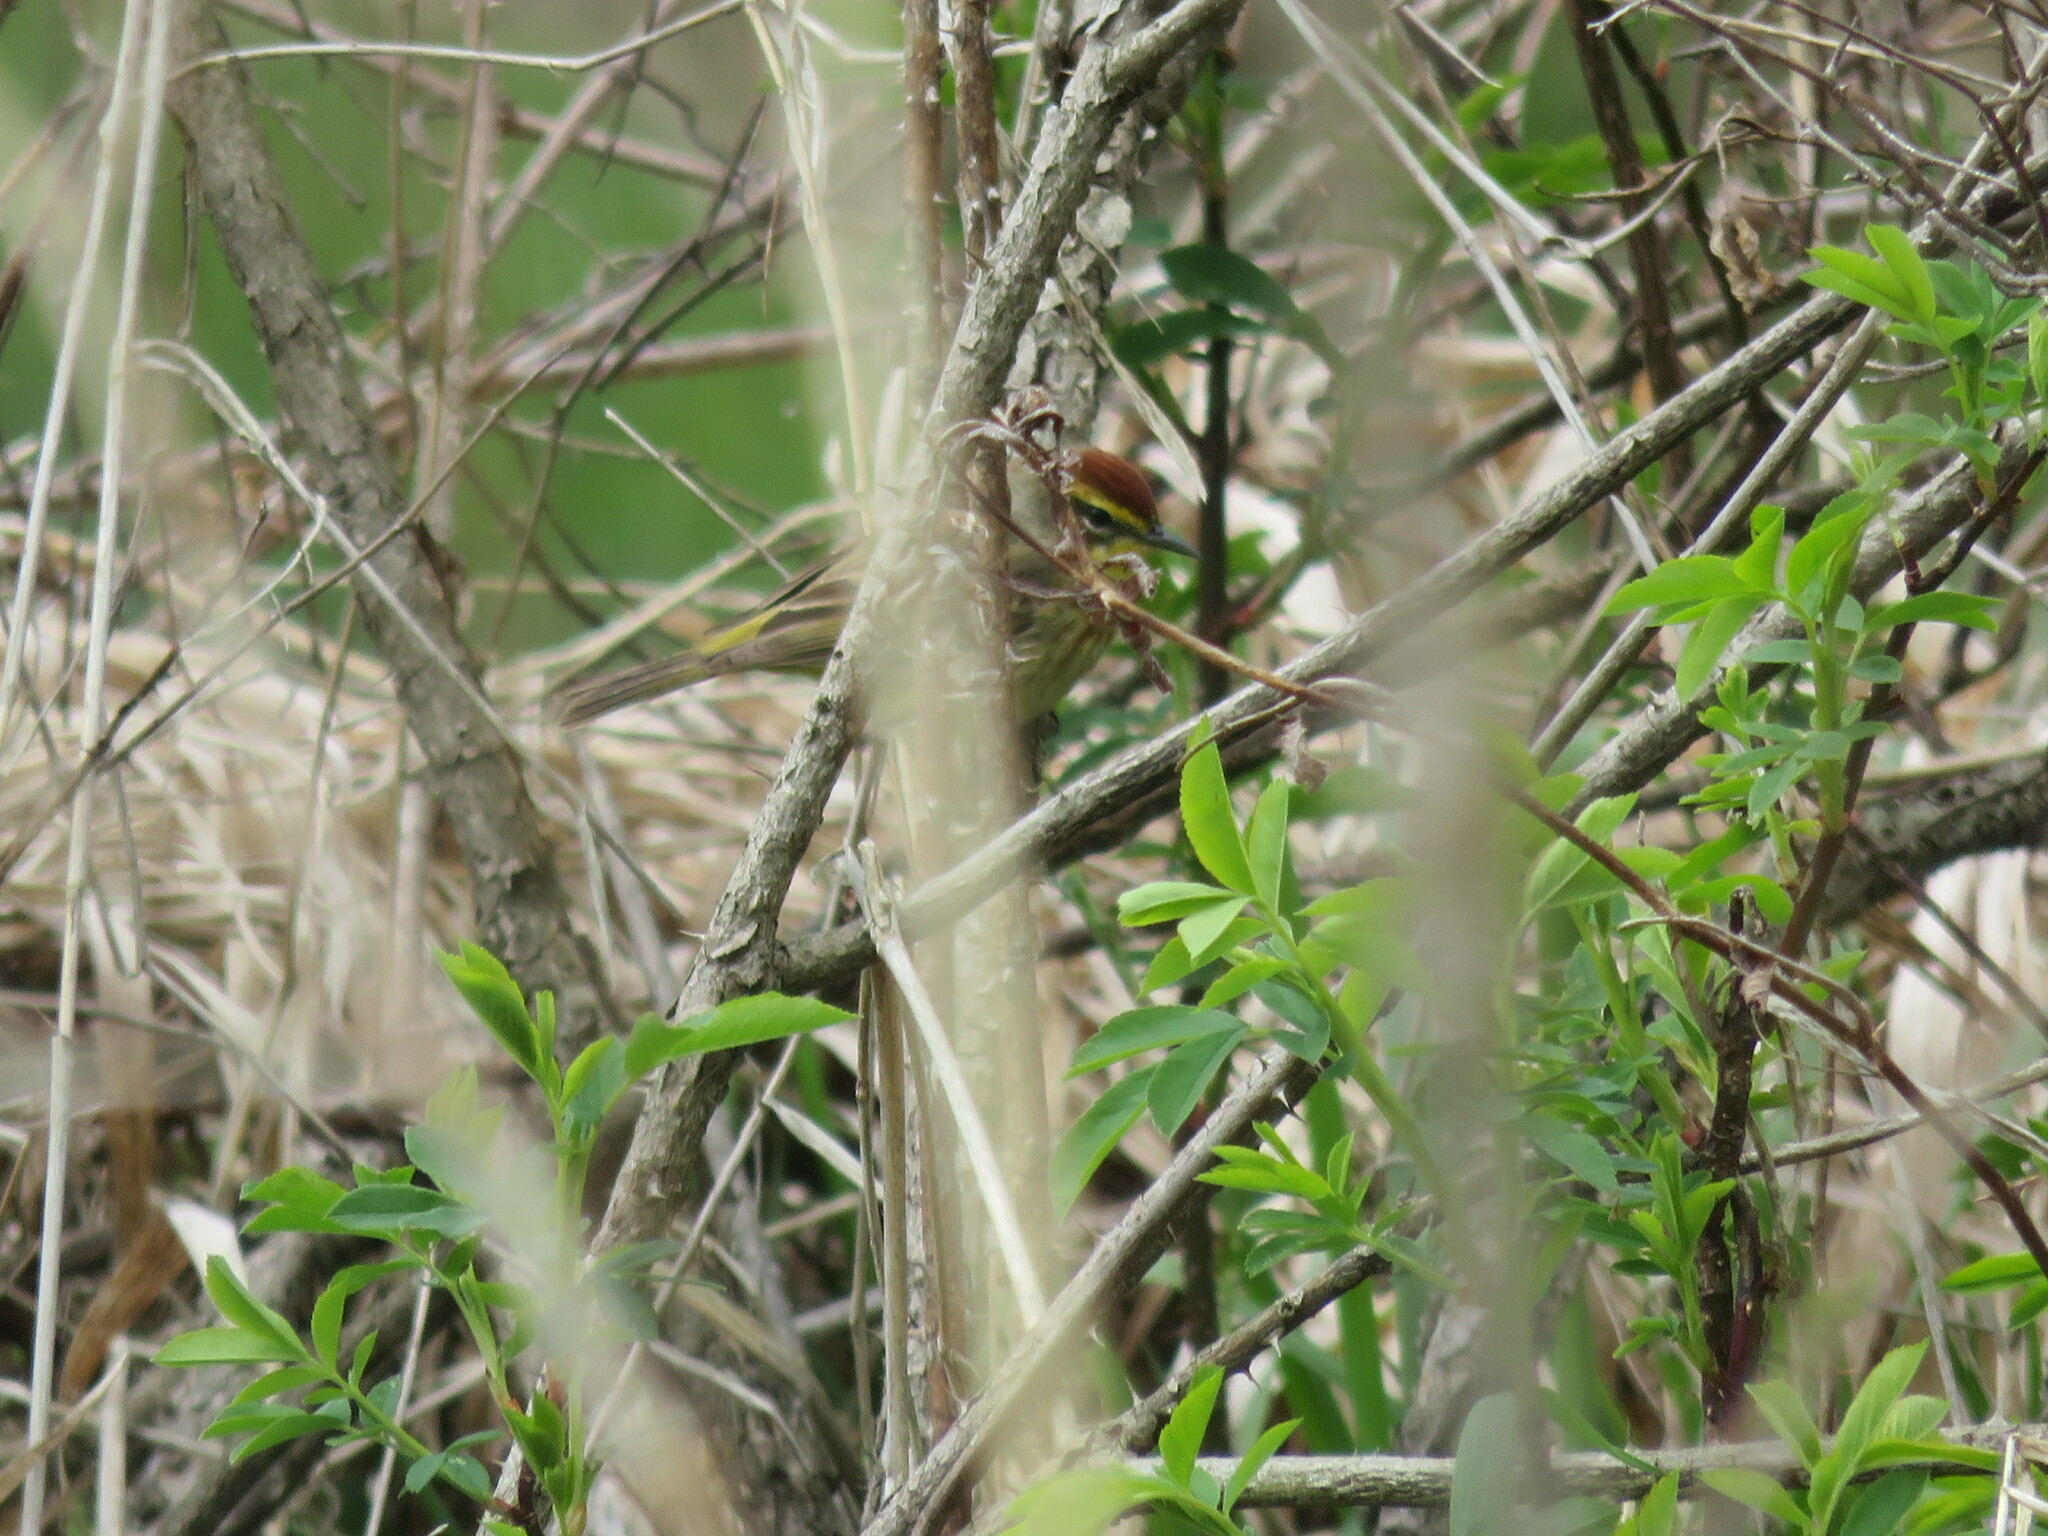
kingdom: Animalia
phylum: Chordata
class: Aves
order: Passeriformes
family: Parulidae
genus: Setophaga
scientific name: Setophaga palmarum
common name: Palm warbler
